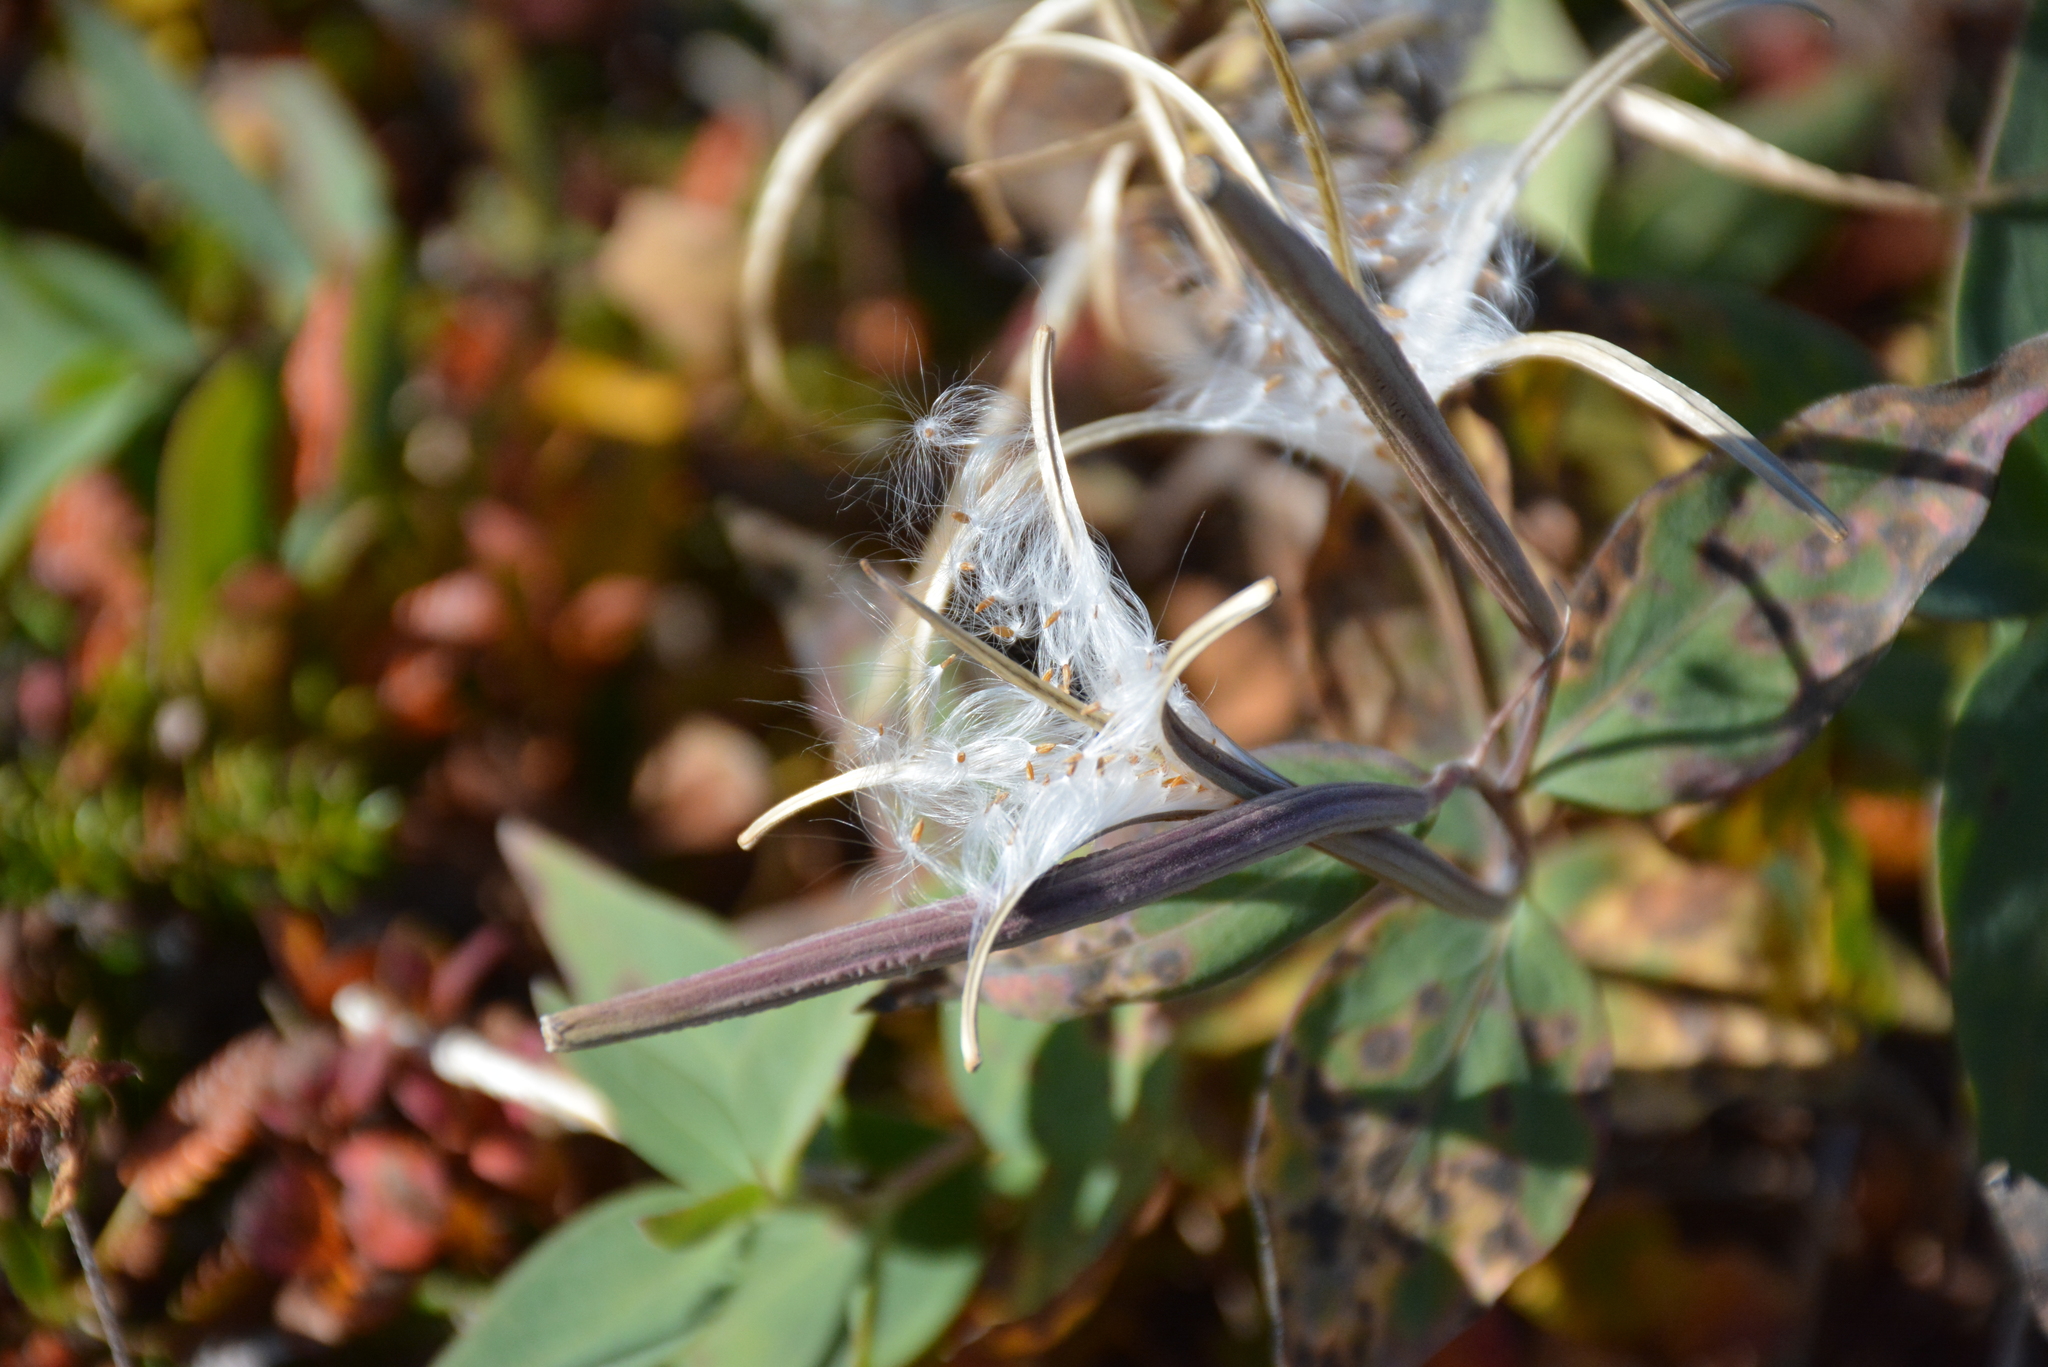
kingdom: Plantae
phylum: Tracheophyta
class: Magnoliopsida
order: Myrtales
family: Onagraceae
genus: Chamaenerion
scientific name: Chamaenerion latifolium
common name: Dwarf fireweed
